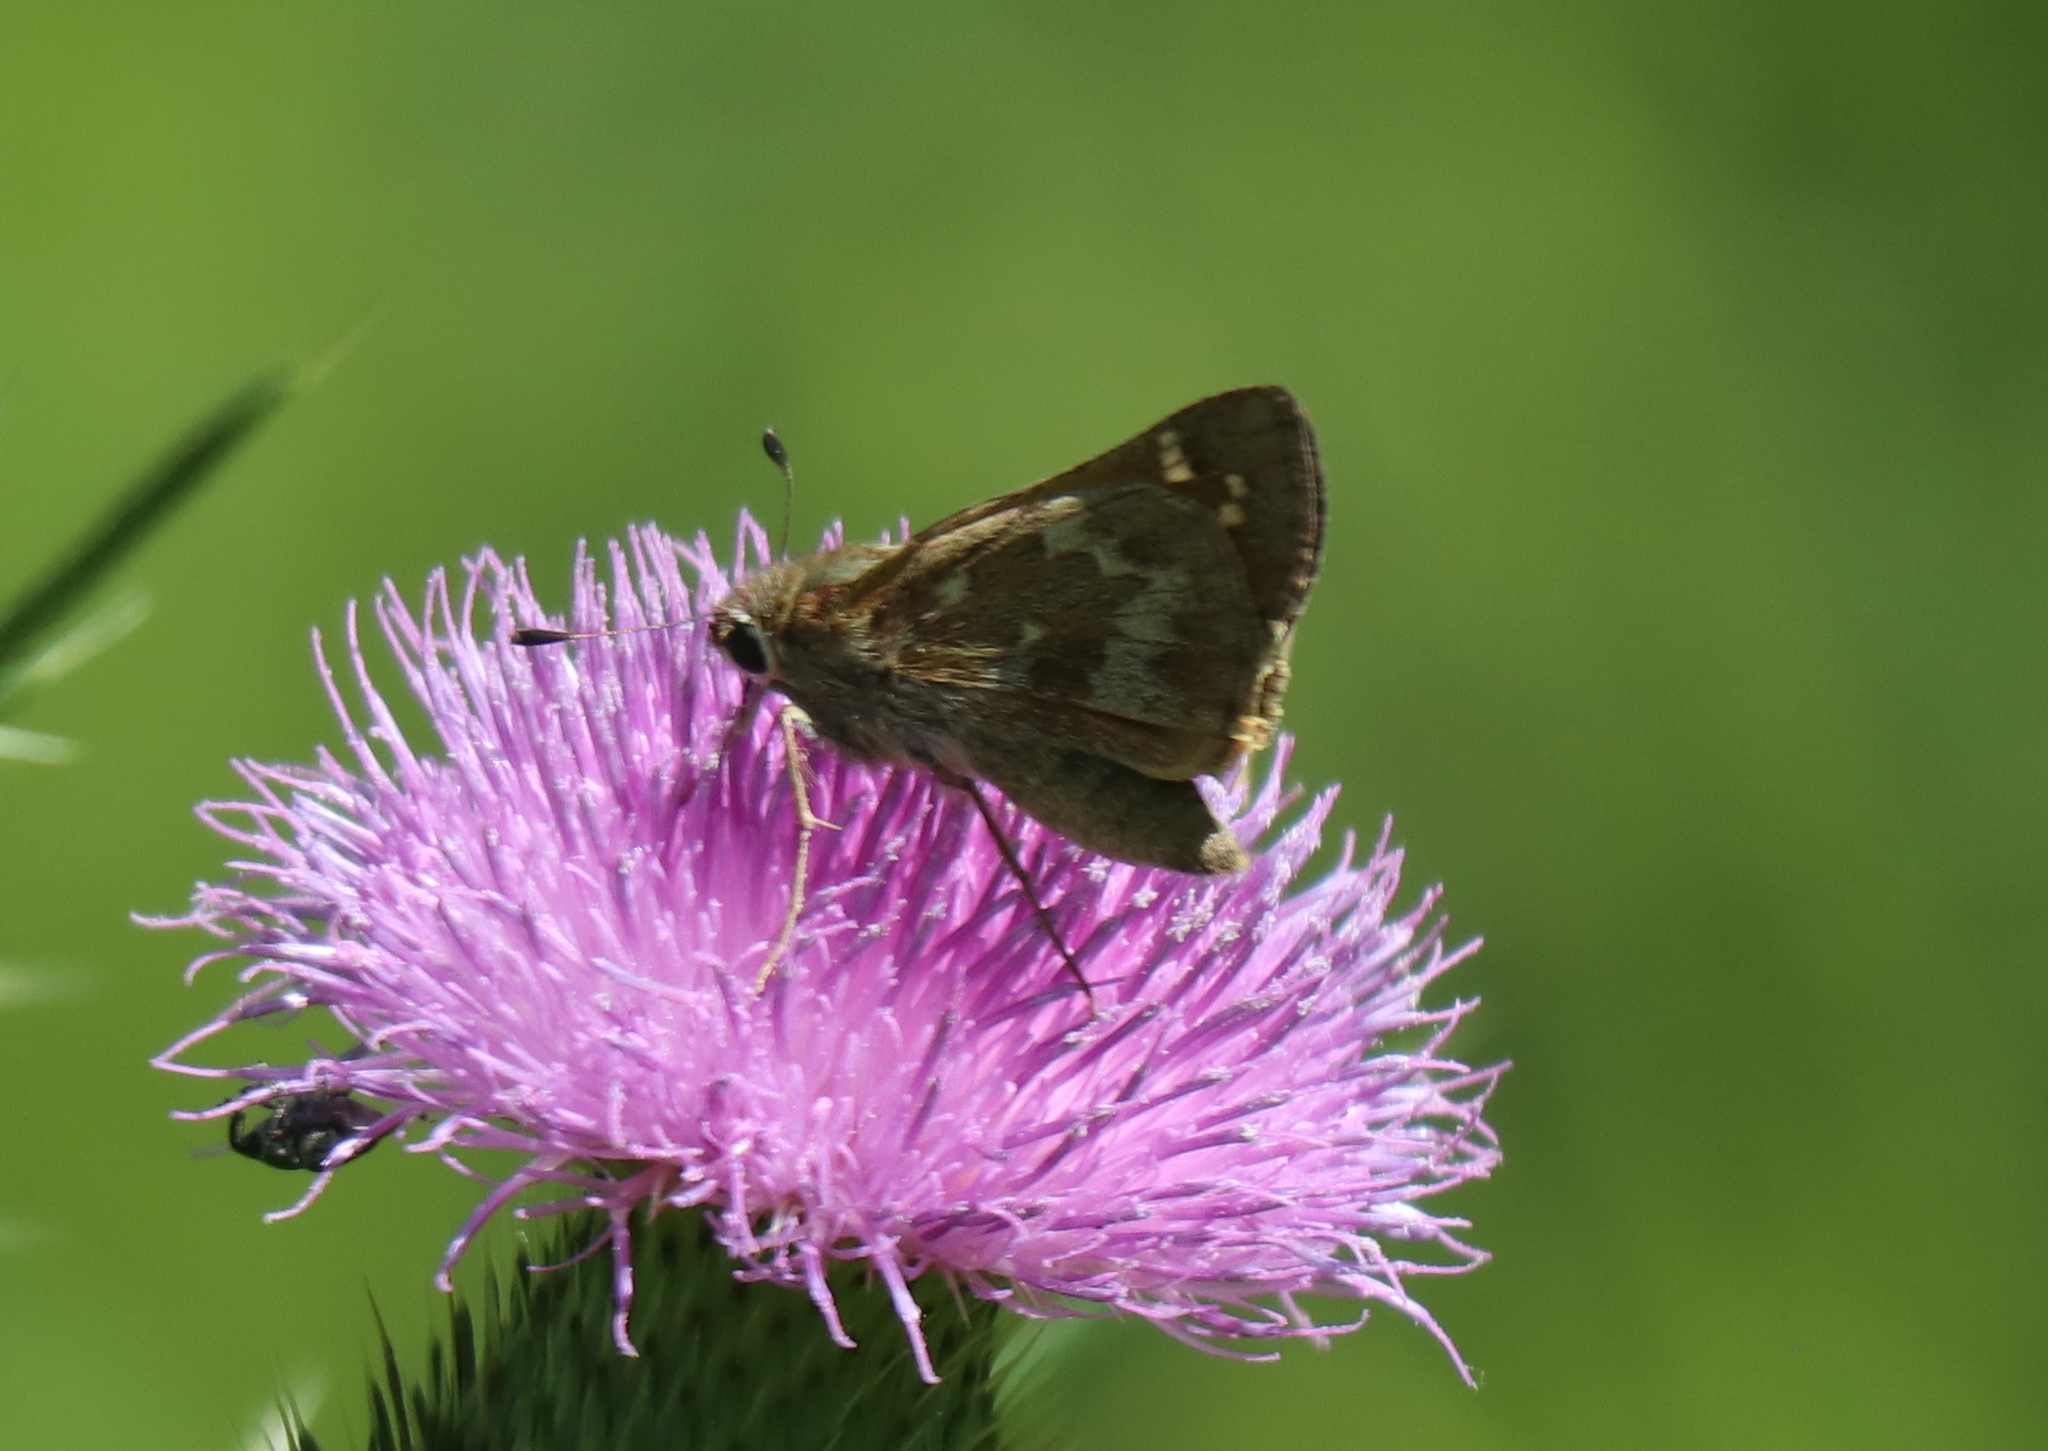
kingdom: Animalia
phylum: Arthropoda
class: Insecta
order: Lepidoptera
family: Hesperiidae
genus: Atalopedes
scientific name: Atalopedes
